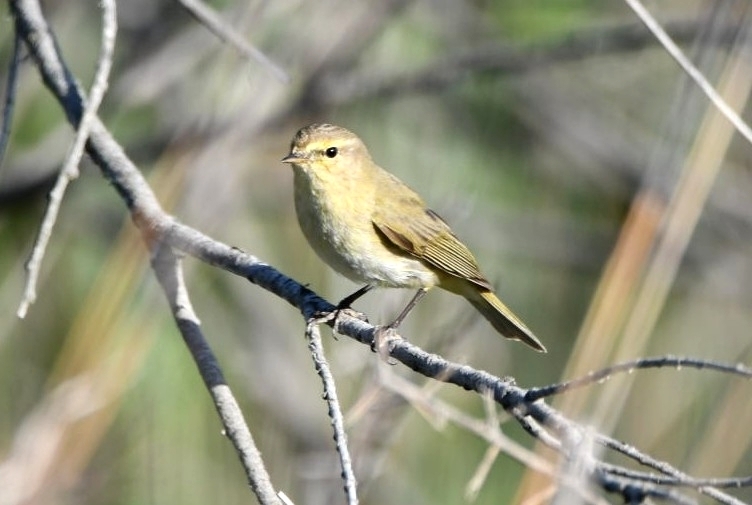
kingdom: Animalia
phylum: Chordata
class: Aves
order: Passeriformes
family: Phylloscopidae
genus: Phylloscopus
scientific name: Phylloscopus collybita
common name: Common chiffchaff
